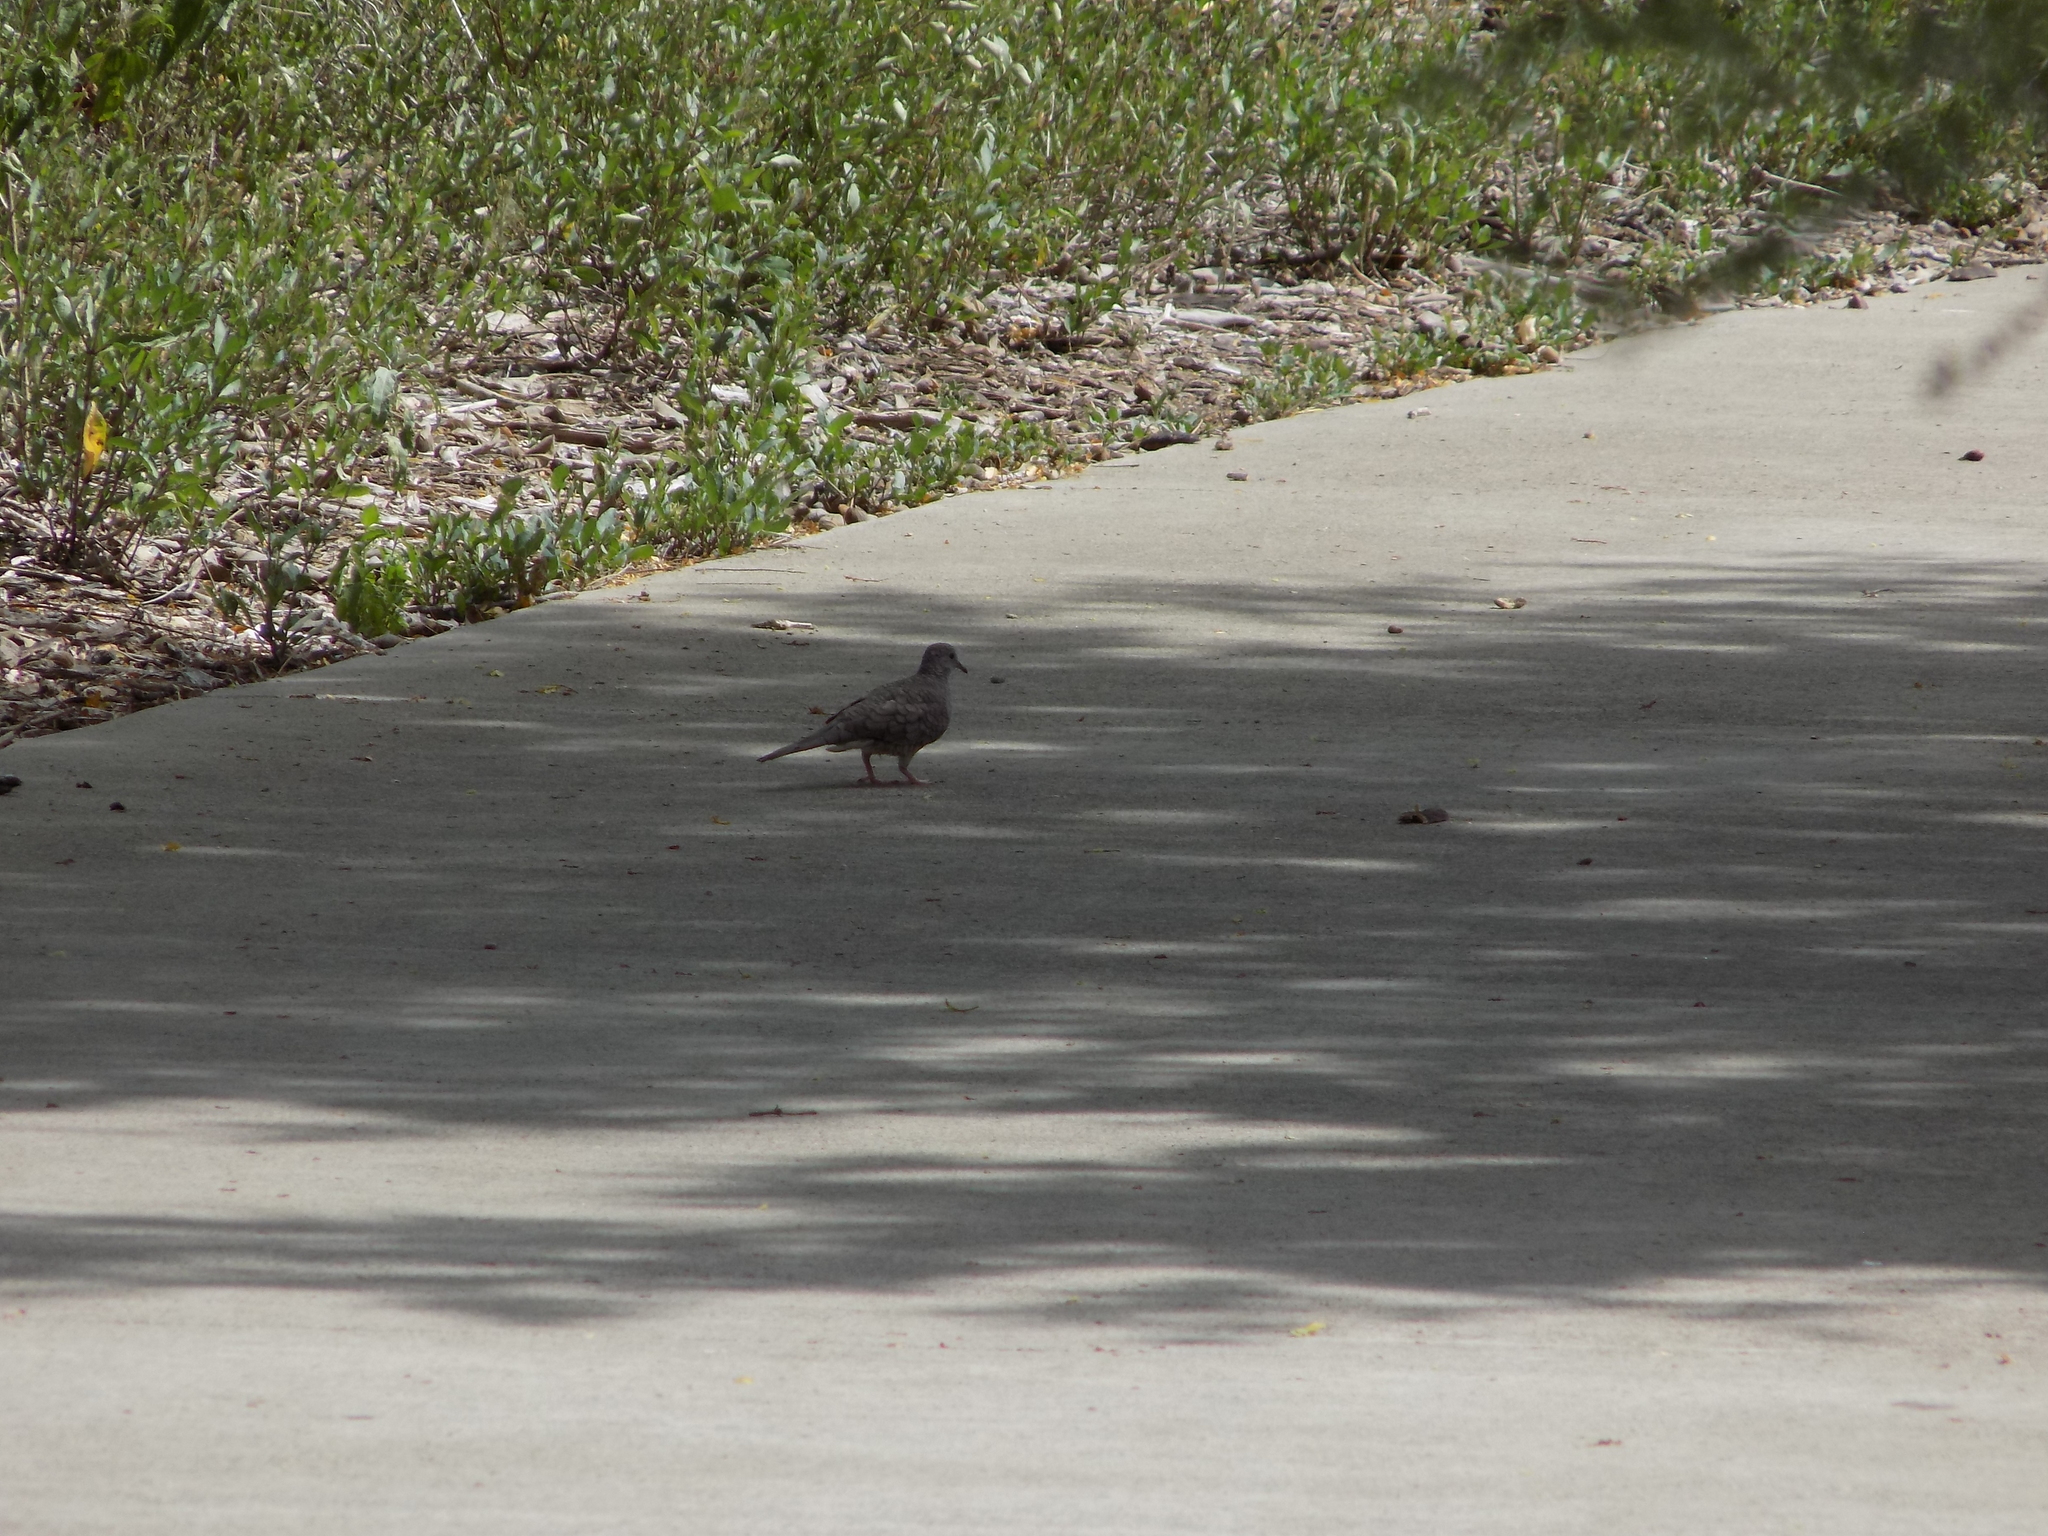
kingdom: Animalia
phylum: Chordata
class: Aves
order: Columbiformes
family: Columbidae
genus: Columbina
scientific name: Columbina inca
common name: Inca dove
